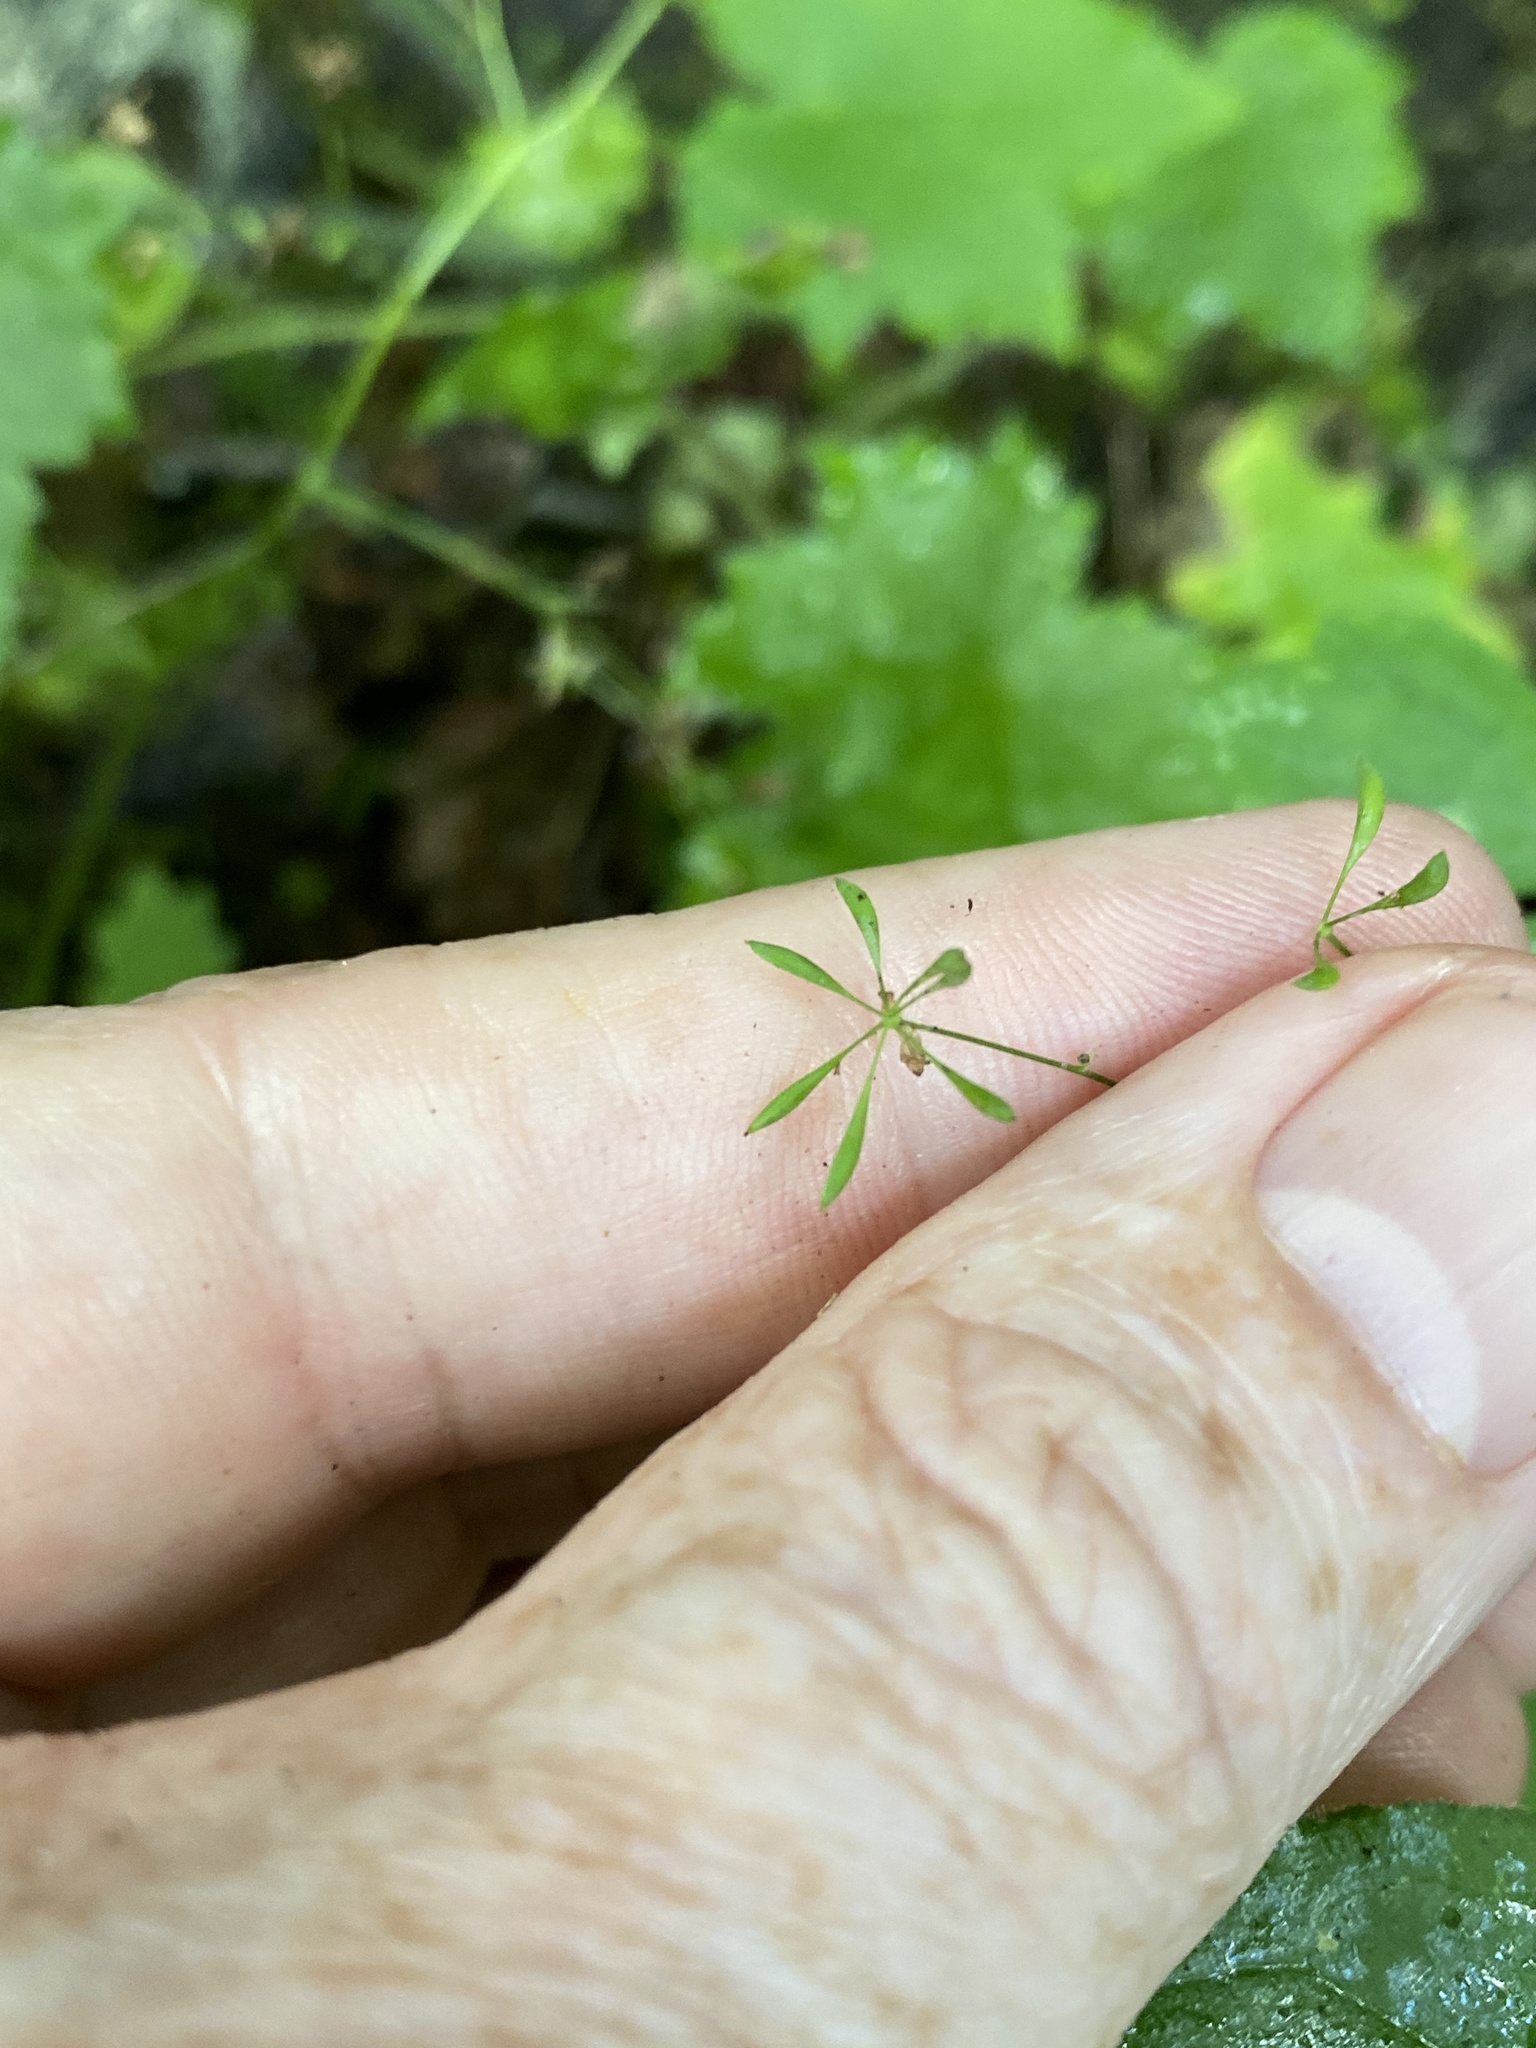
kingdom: Plantae
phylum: Tracheophyta
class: Magnoliopsida
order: Ranunculales
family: Ranunculaceae
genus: Thalictrum
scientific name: Thalictrum clavatum
